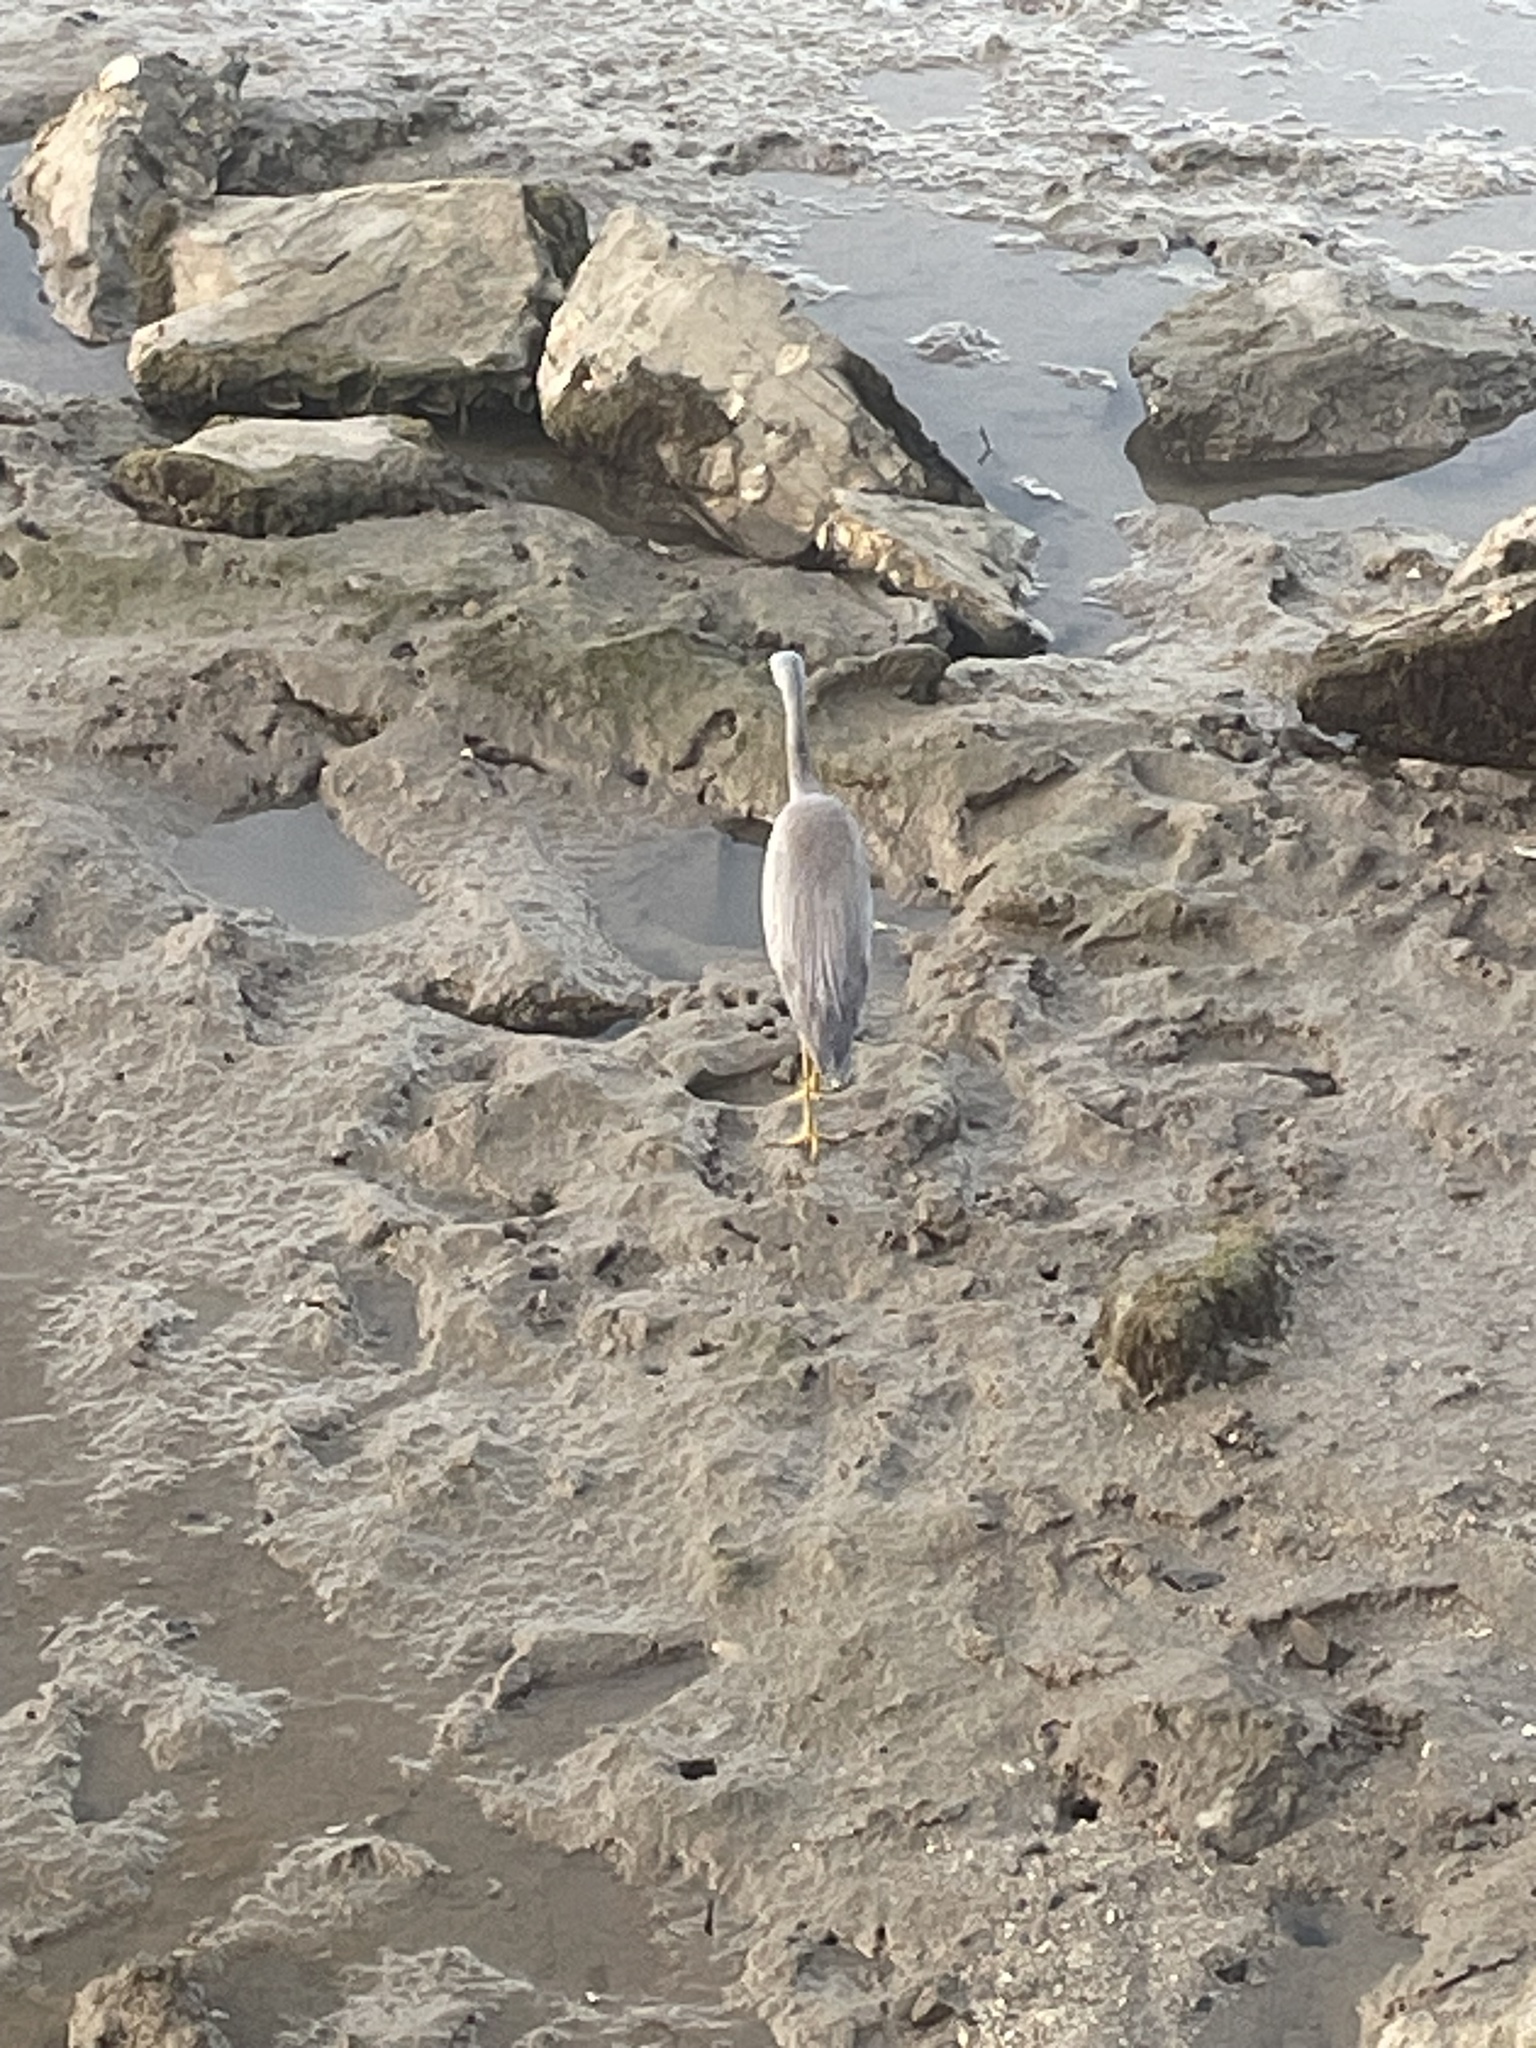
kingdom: Animalia
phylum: Chordata
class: Aves
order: Pelecaniformes
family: Ardeidae
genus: Egretta
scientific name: Egretta novaehollandiae
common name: White-faced heron
